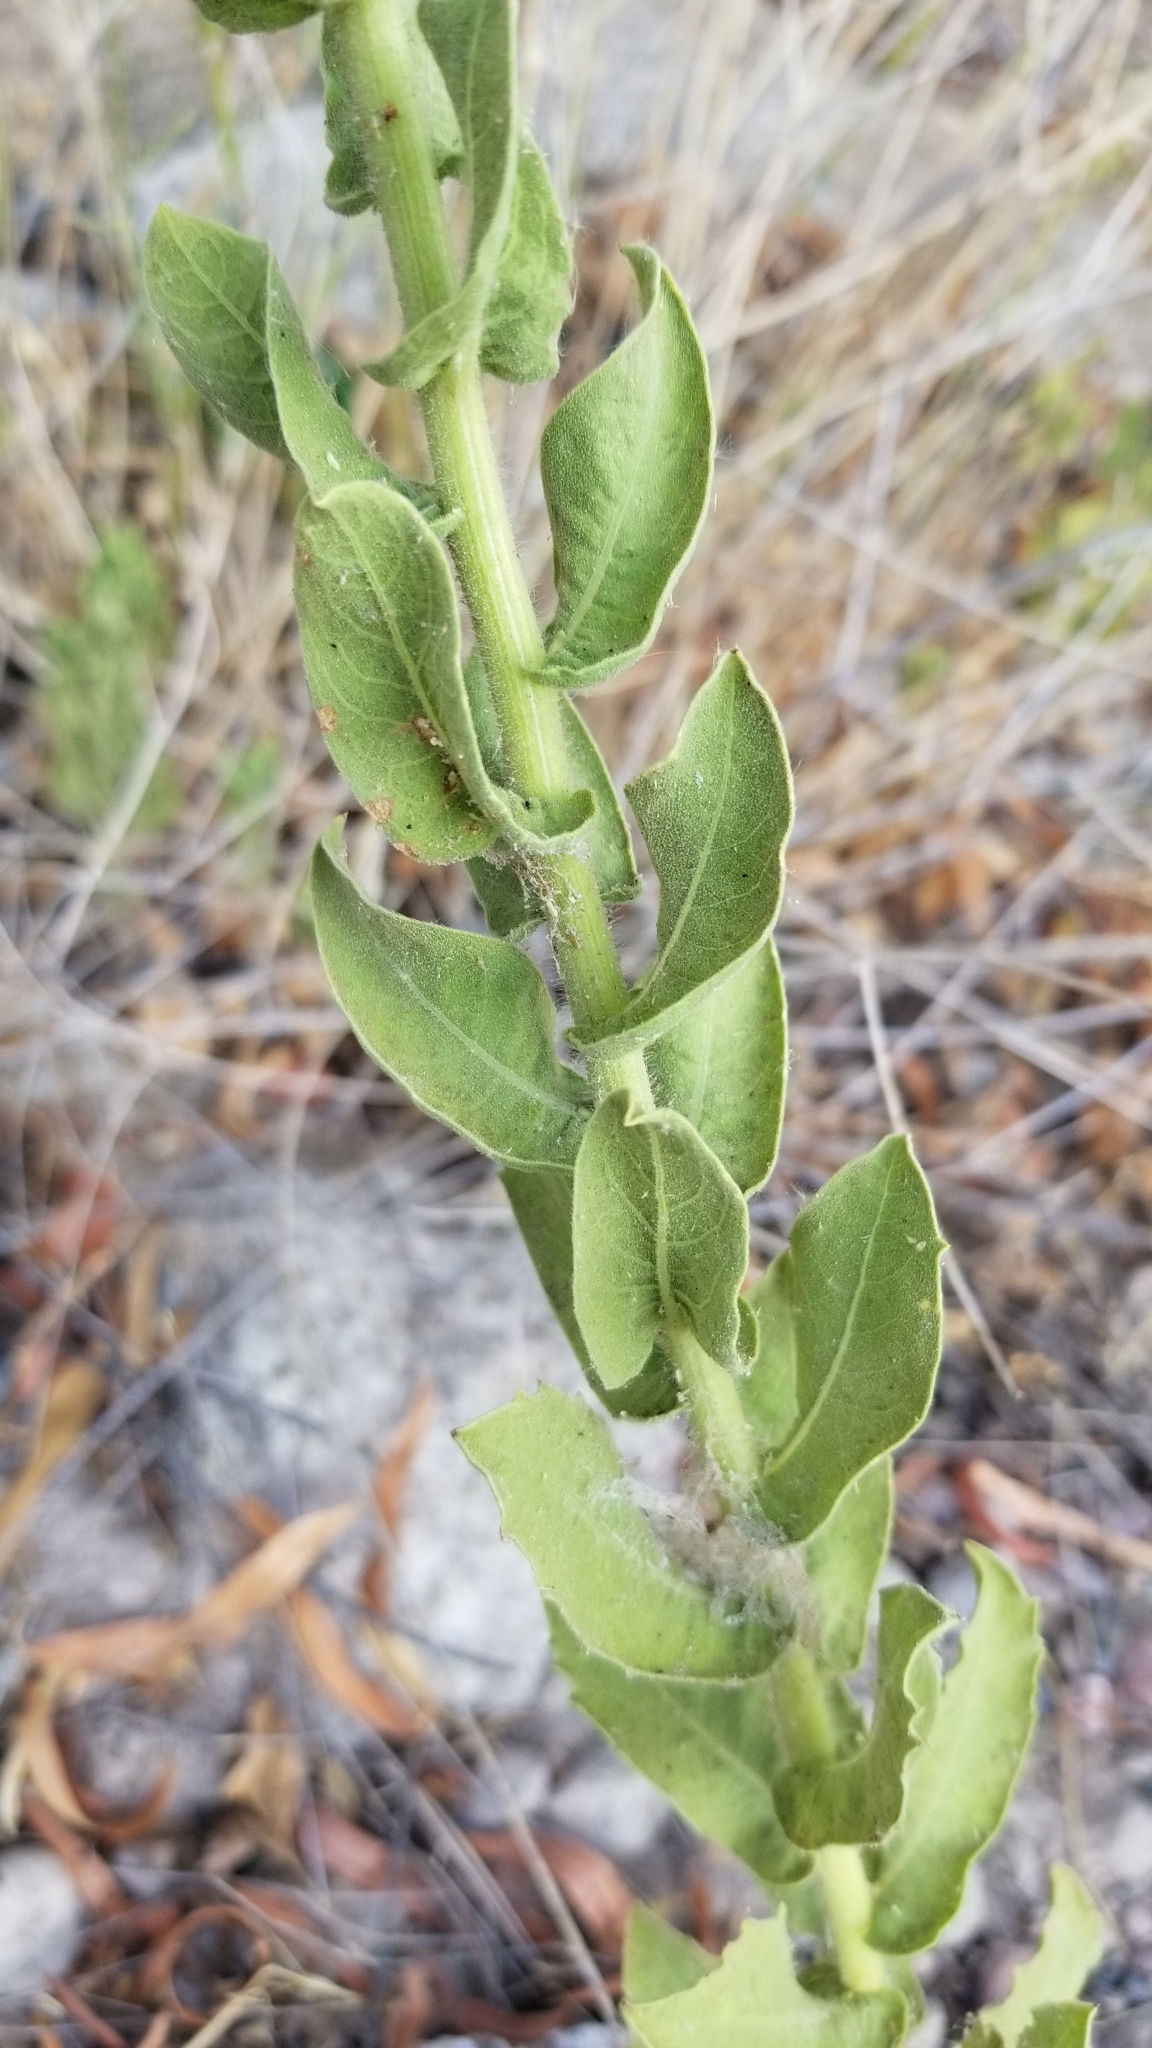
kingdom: Plantae
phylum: Tracheophyta
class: Magnoliopsida
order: Asterales
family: Asteraceae
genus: Heterotheca
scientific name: Heterotheca subaxillaris
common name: Camphorweed
